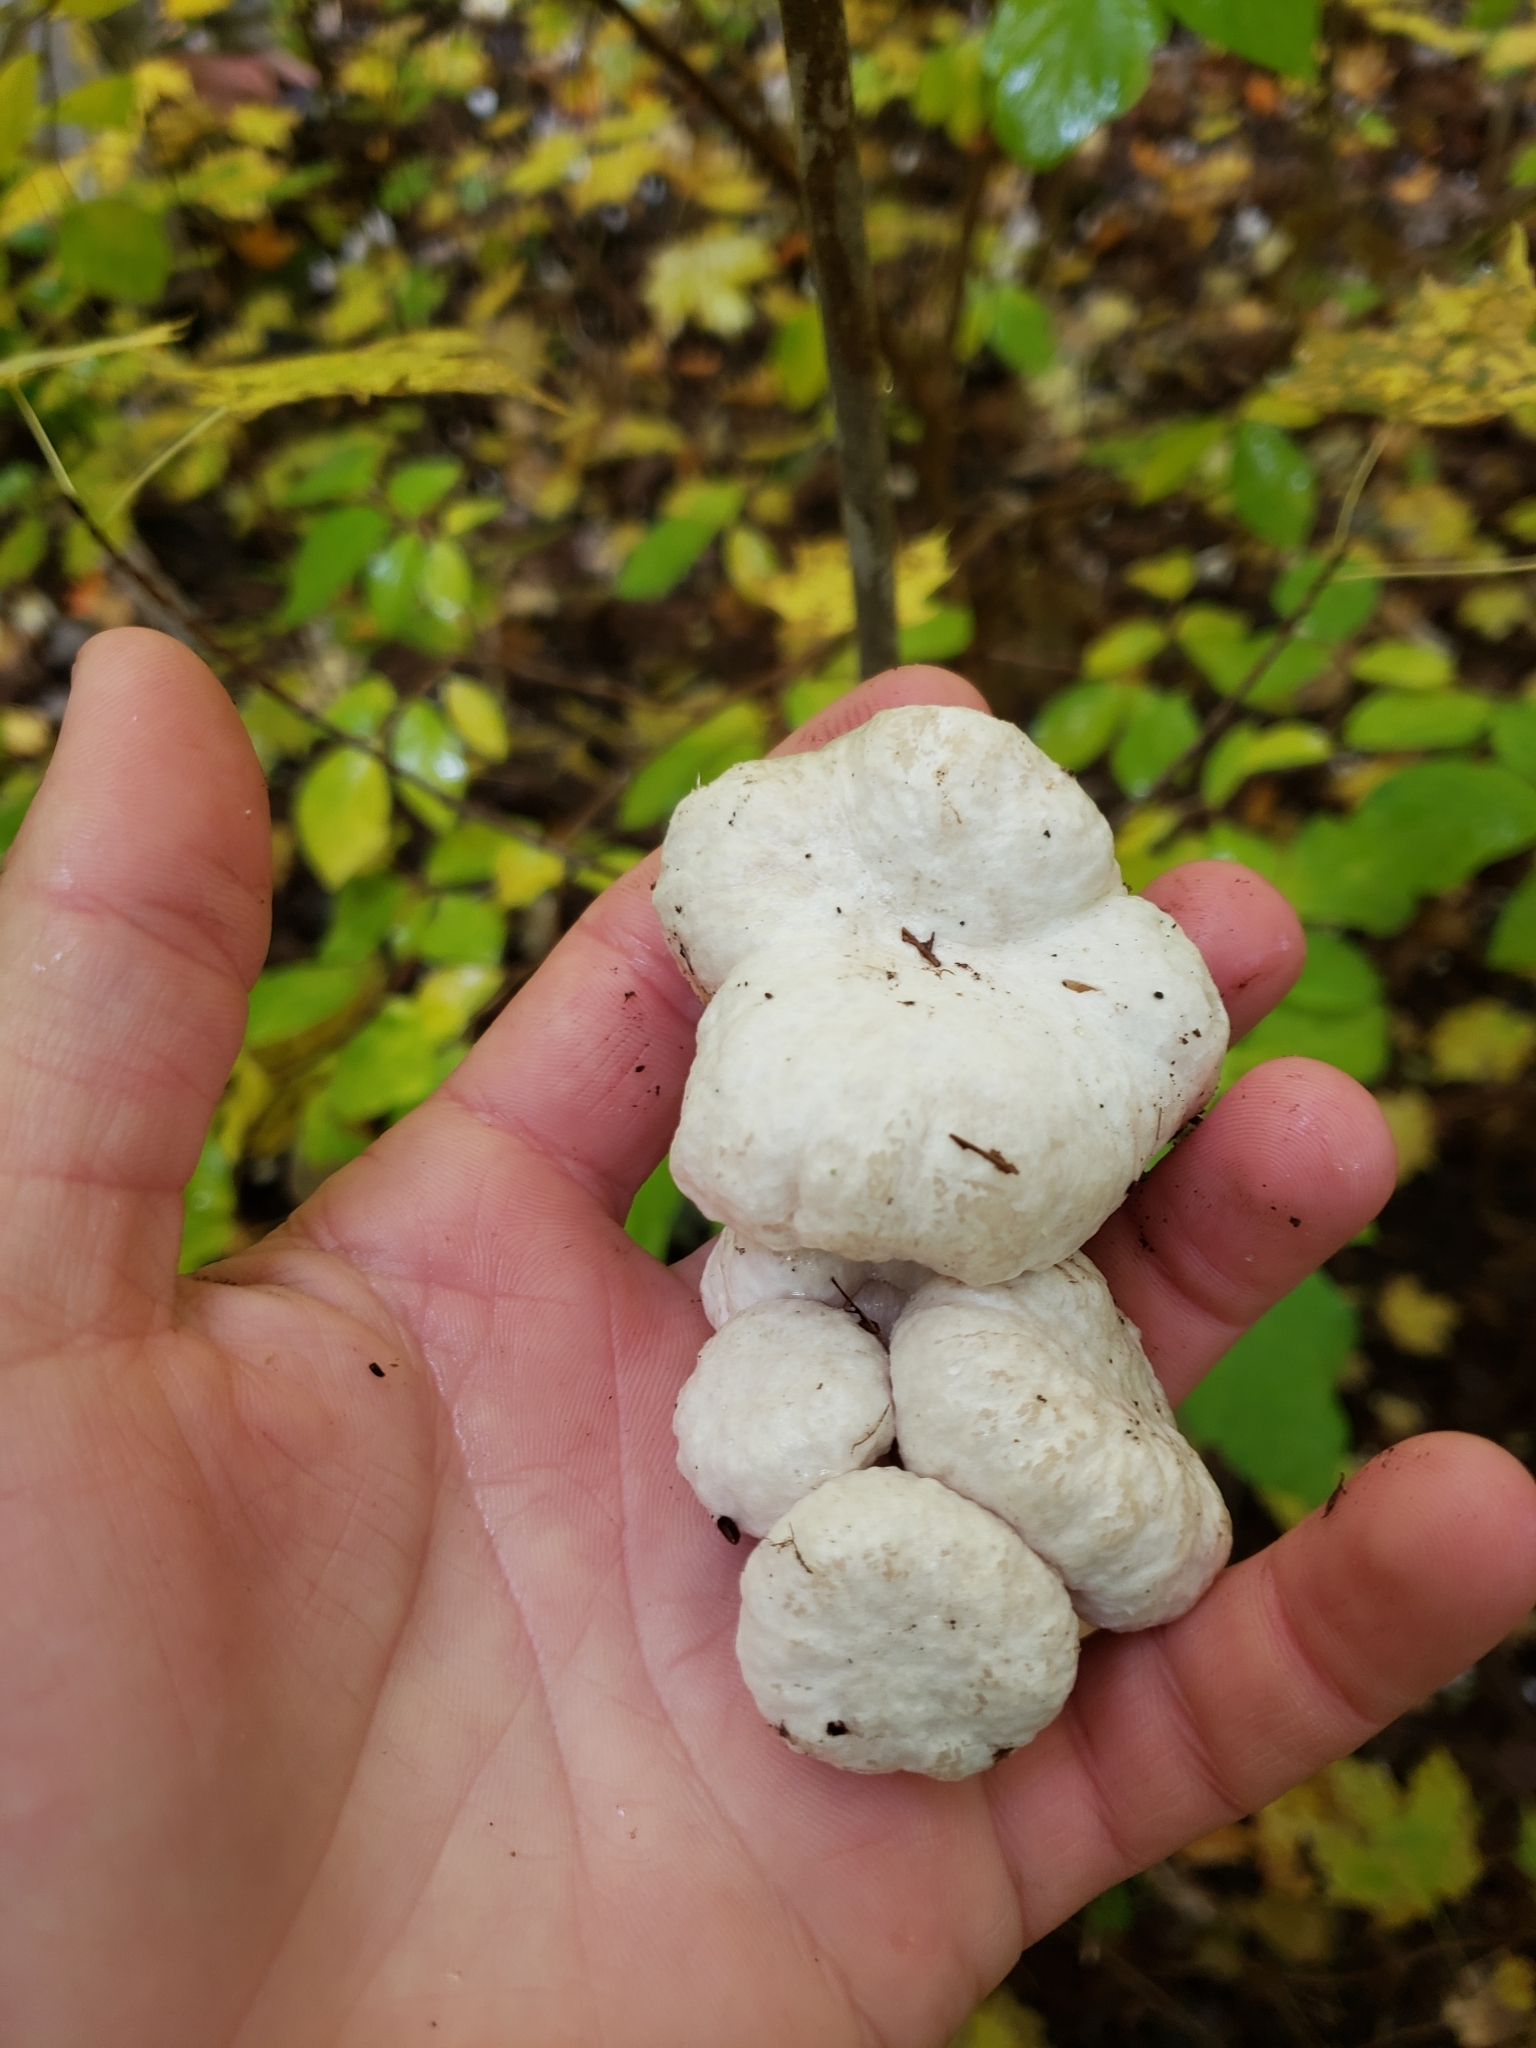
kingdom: Fungi
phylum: Basidiomycota
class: Agaricomycetes
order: Agaricales
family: Entolomataceae
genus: Entoloma
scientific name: Entoloma abortivum
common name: Aborted entoloma
